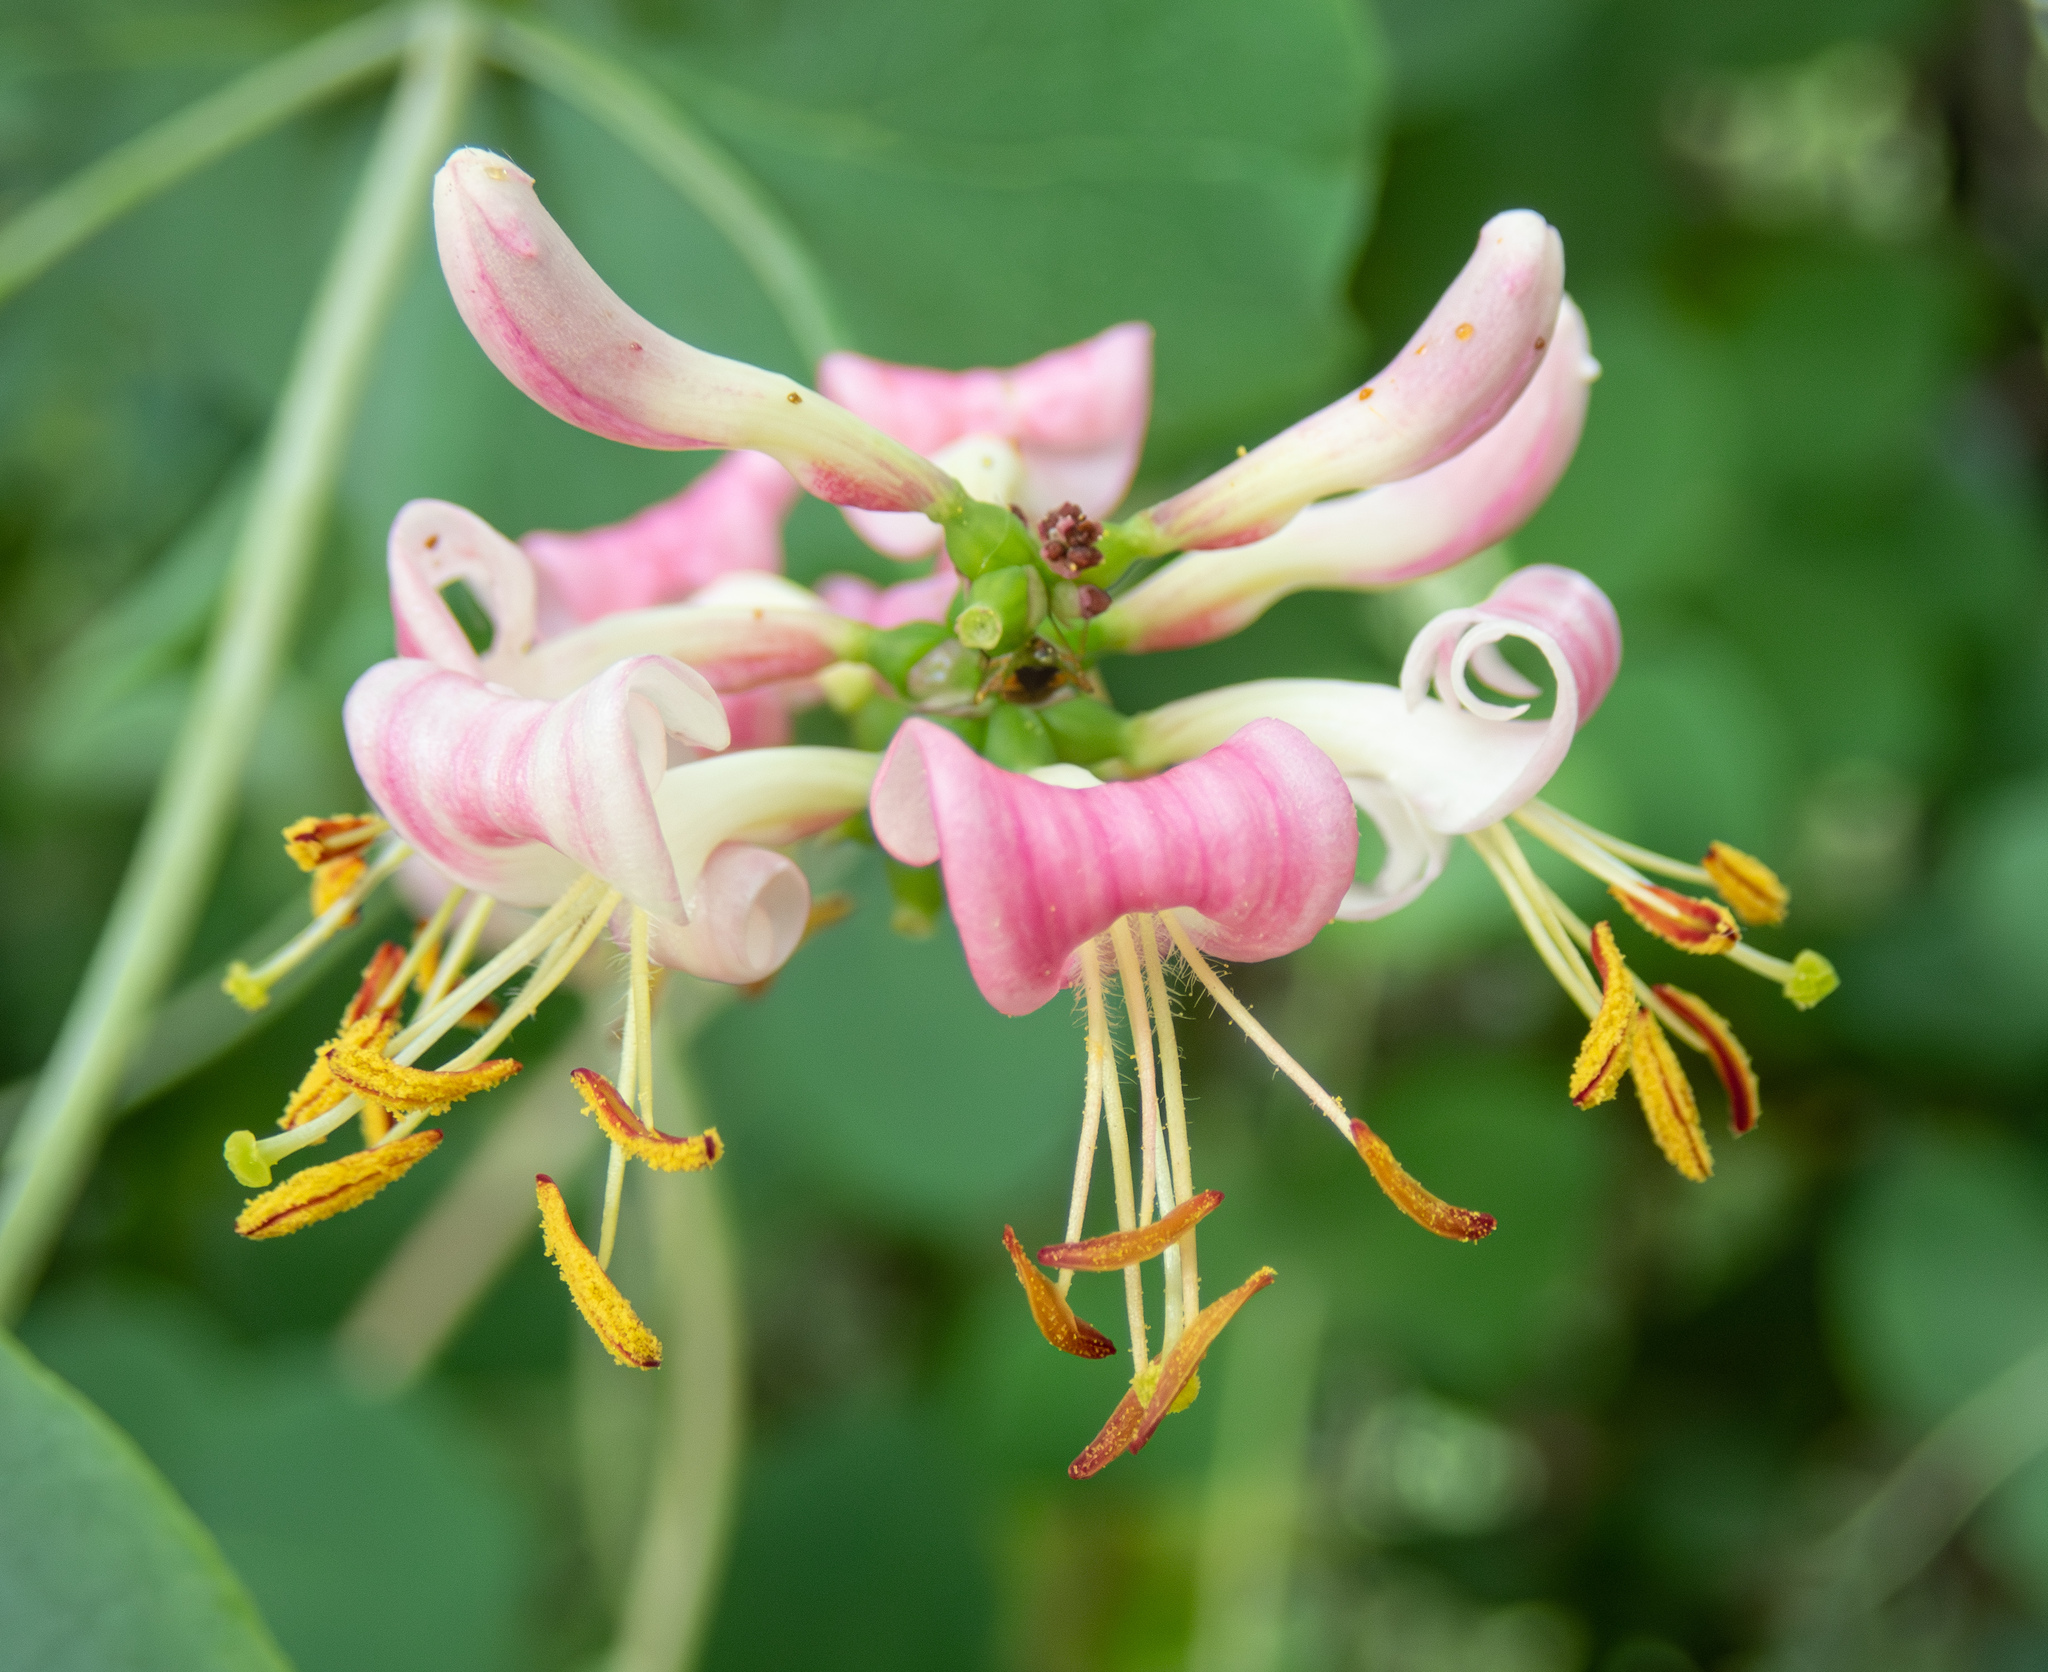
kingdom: Plantae
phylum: Tracheophyta
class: Magnoliopsida
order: Dipsacales
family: Caprifoliaceae
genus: Lonicera
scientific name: Lonicera hispidula
